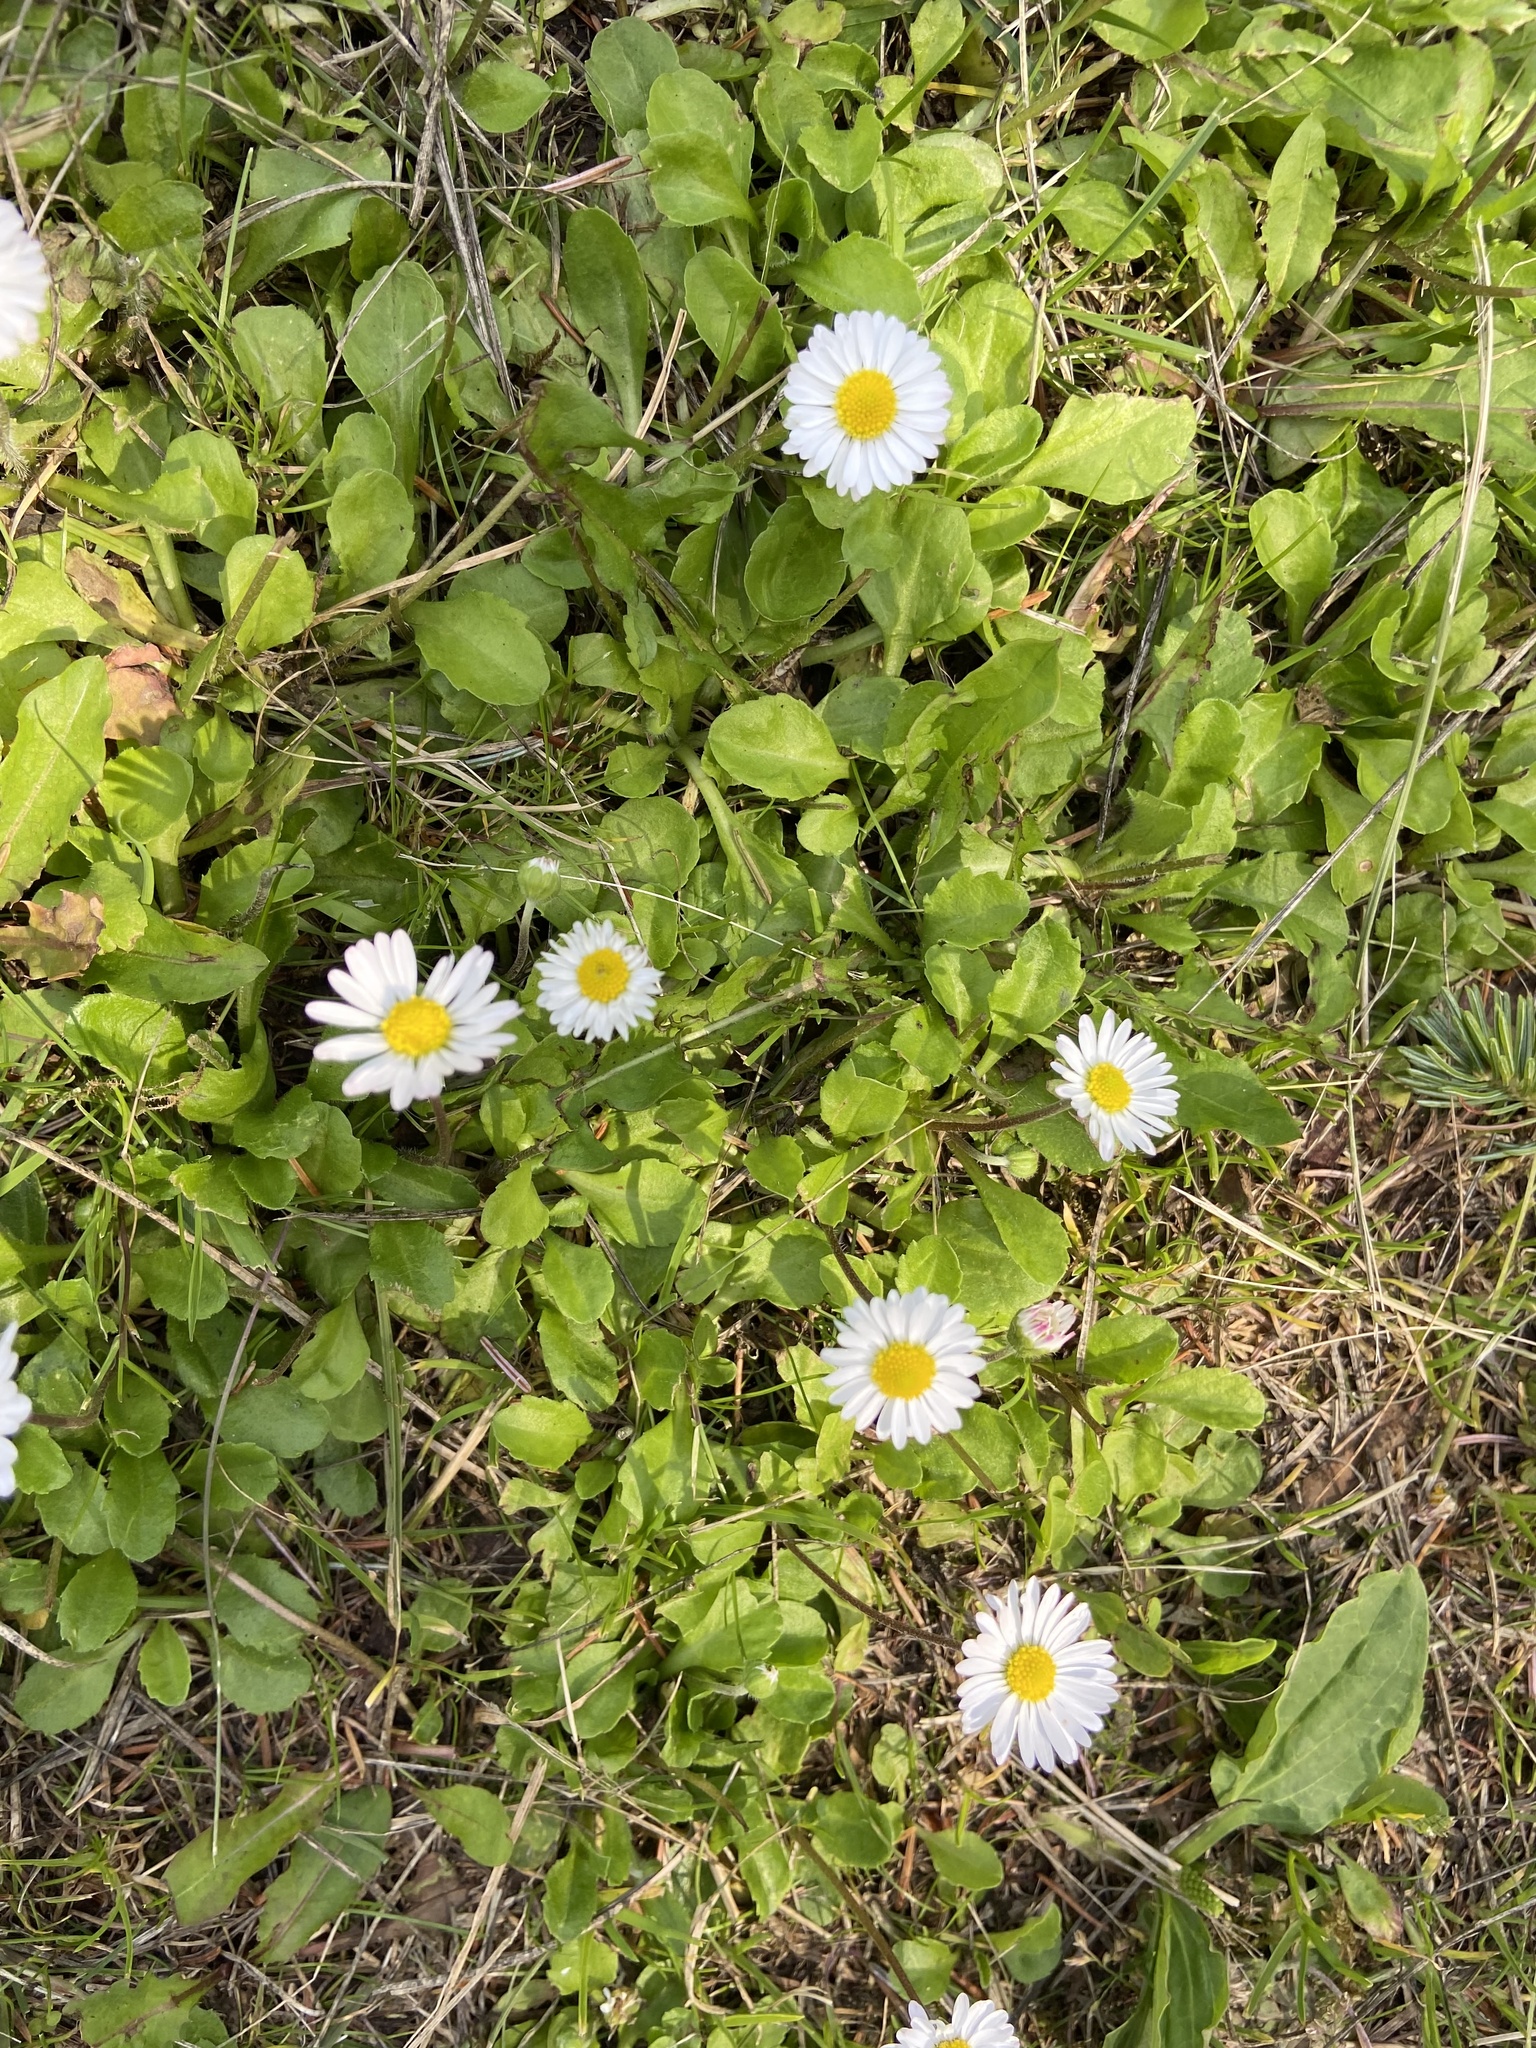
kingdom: Plantae
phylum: Tracheophyta
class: Magnoliopsida
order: Asterales
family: Asteraceae
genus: Bellis
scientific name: Bellis perennis
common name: Lawndaisy
